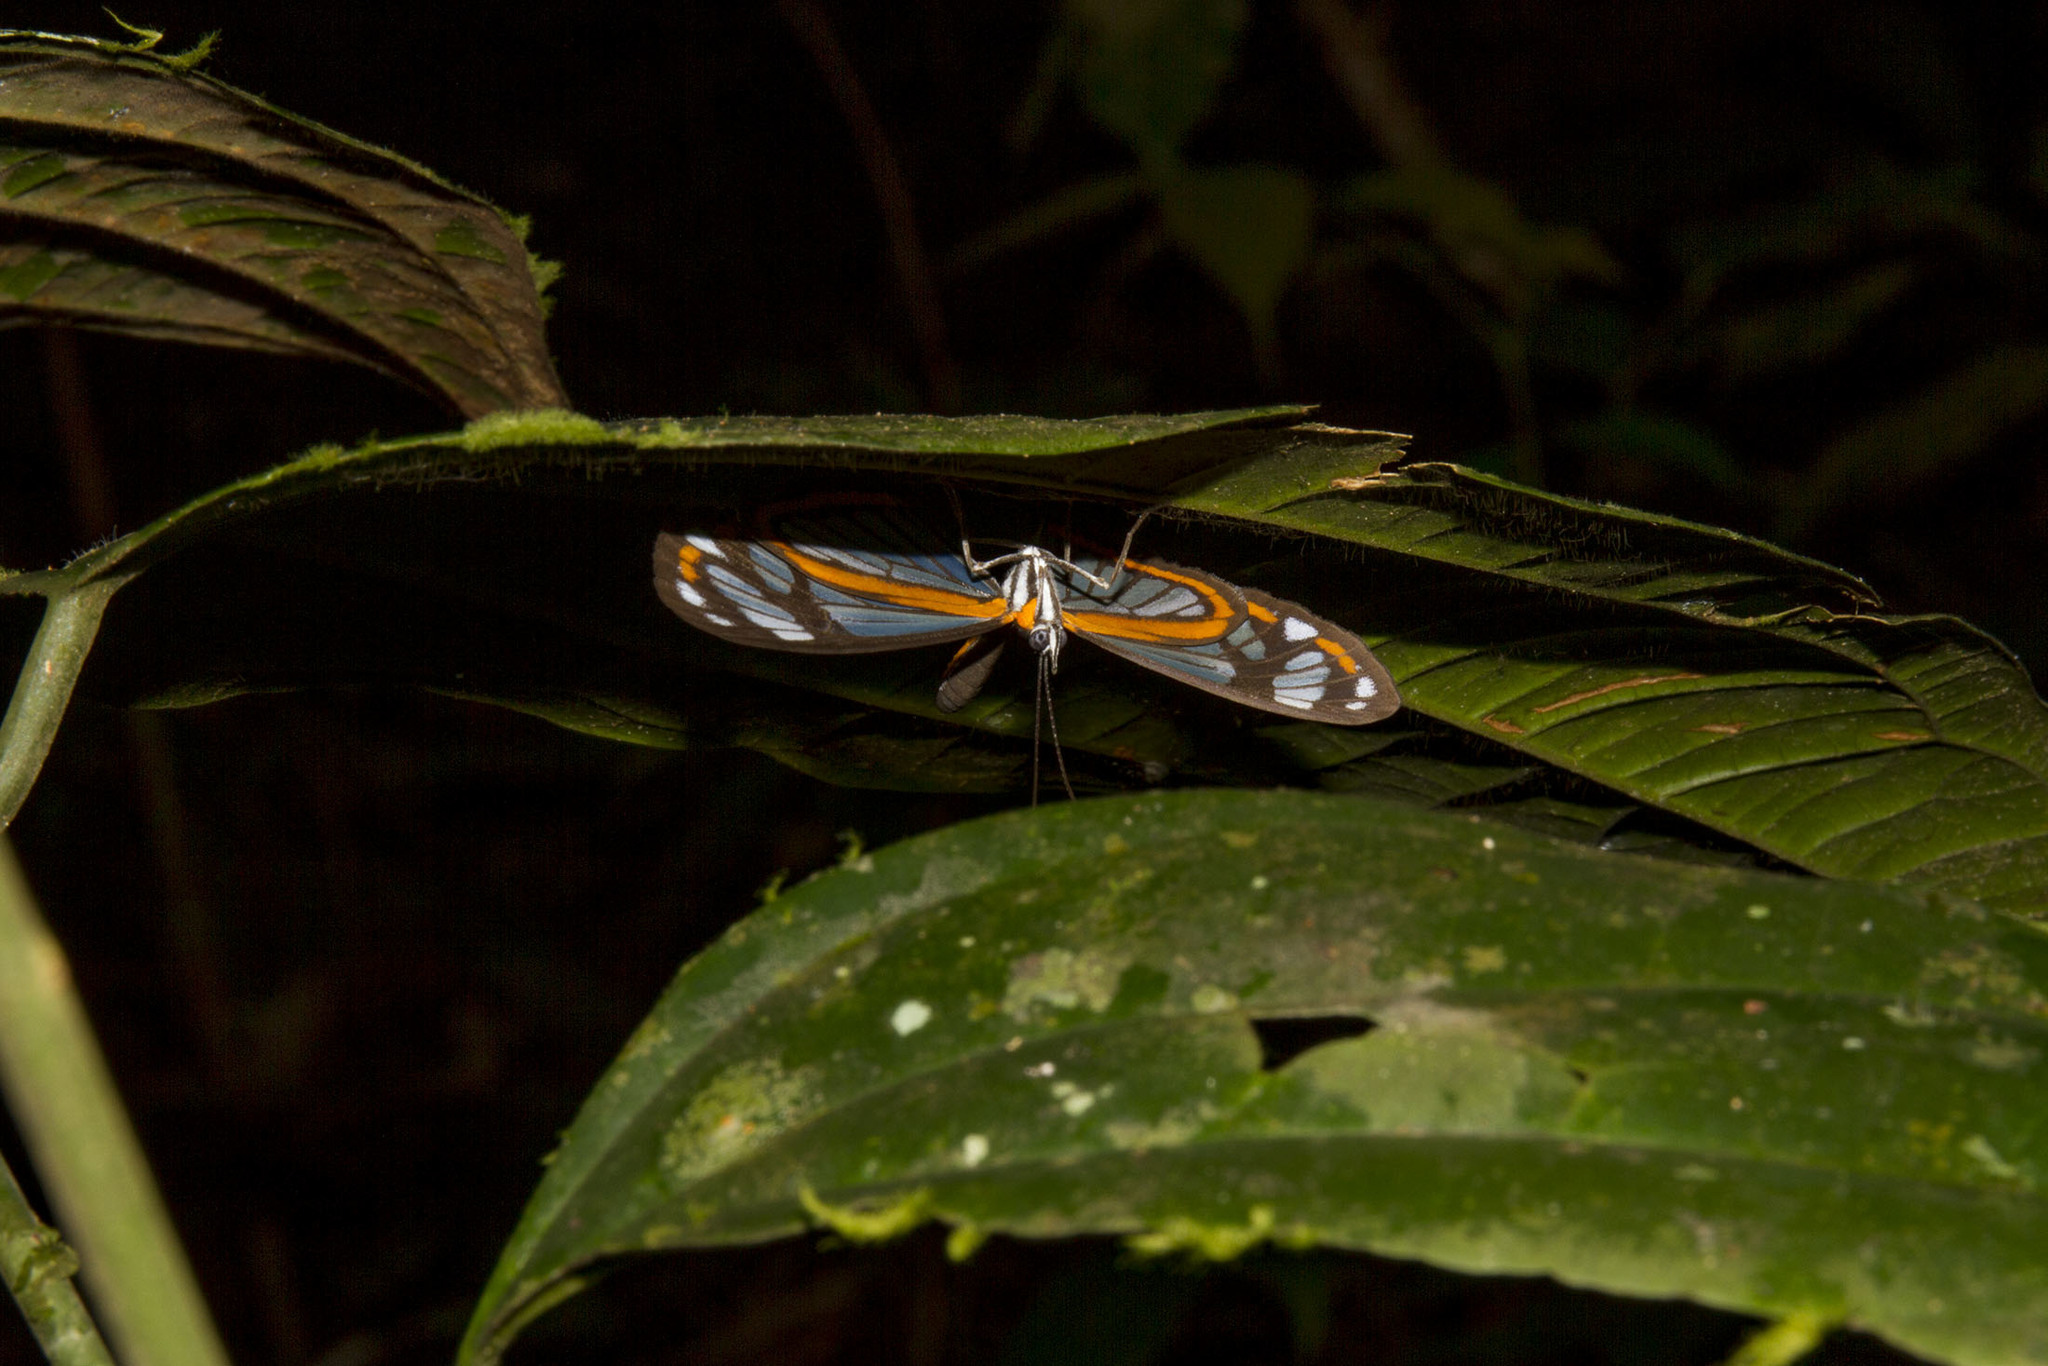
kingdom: Animalia
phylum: Arthropoda
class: Insecta
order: Lepidoptera
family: Riodinidae
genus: Stalachtis
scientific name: Stalachtis zephyritis
